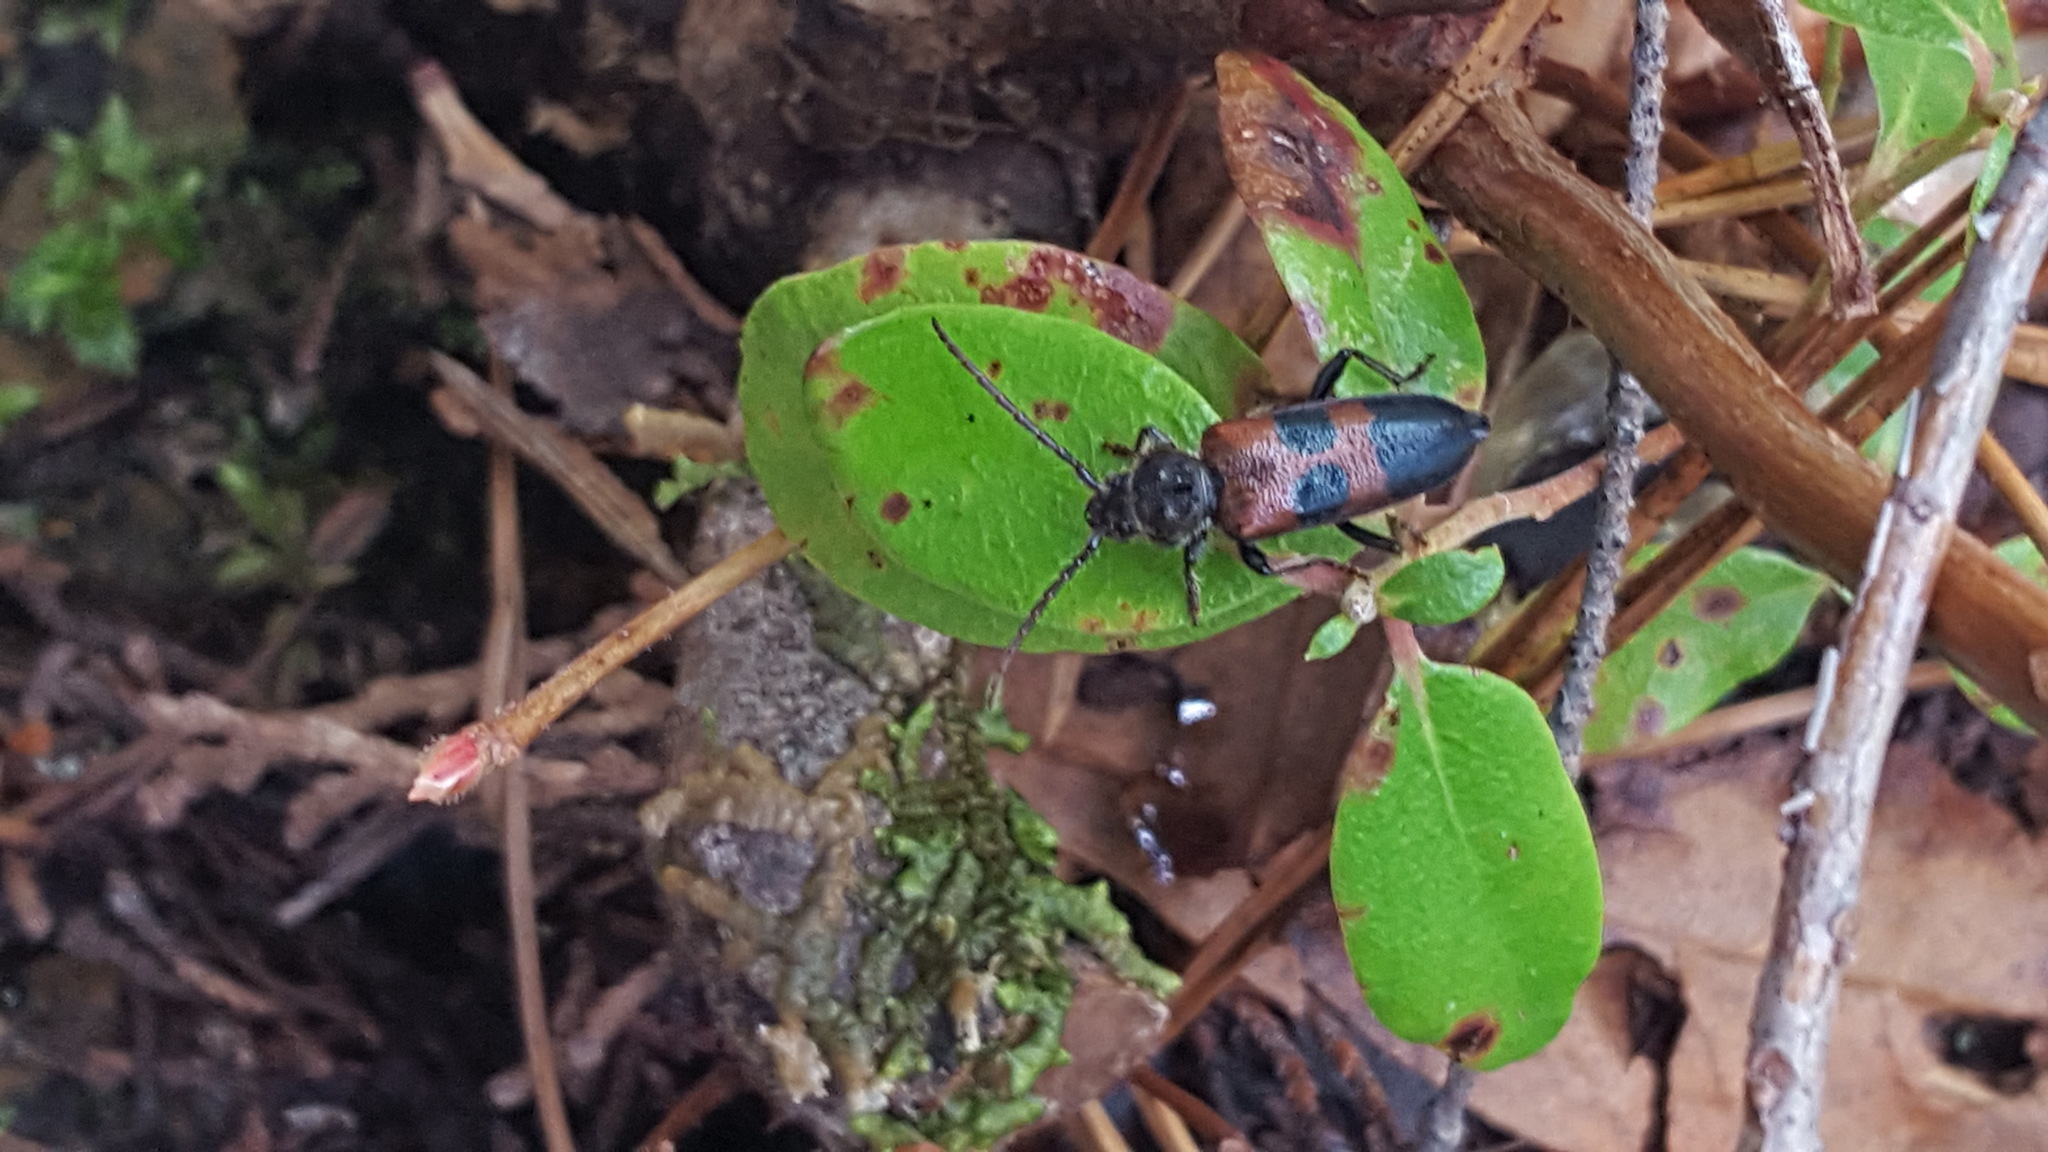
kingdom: Animalia
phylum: Arthropoda
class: Insecta
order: Coleoptera
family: Cerambycidae
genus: Semanotus
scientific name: Semanotus ligneus
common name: Cedartree borer
